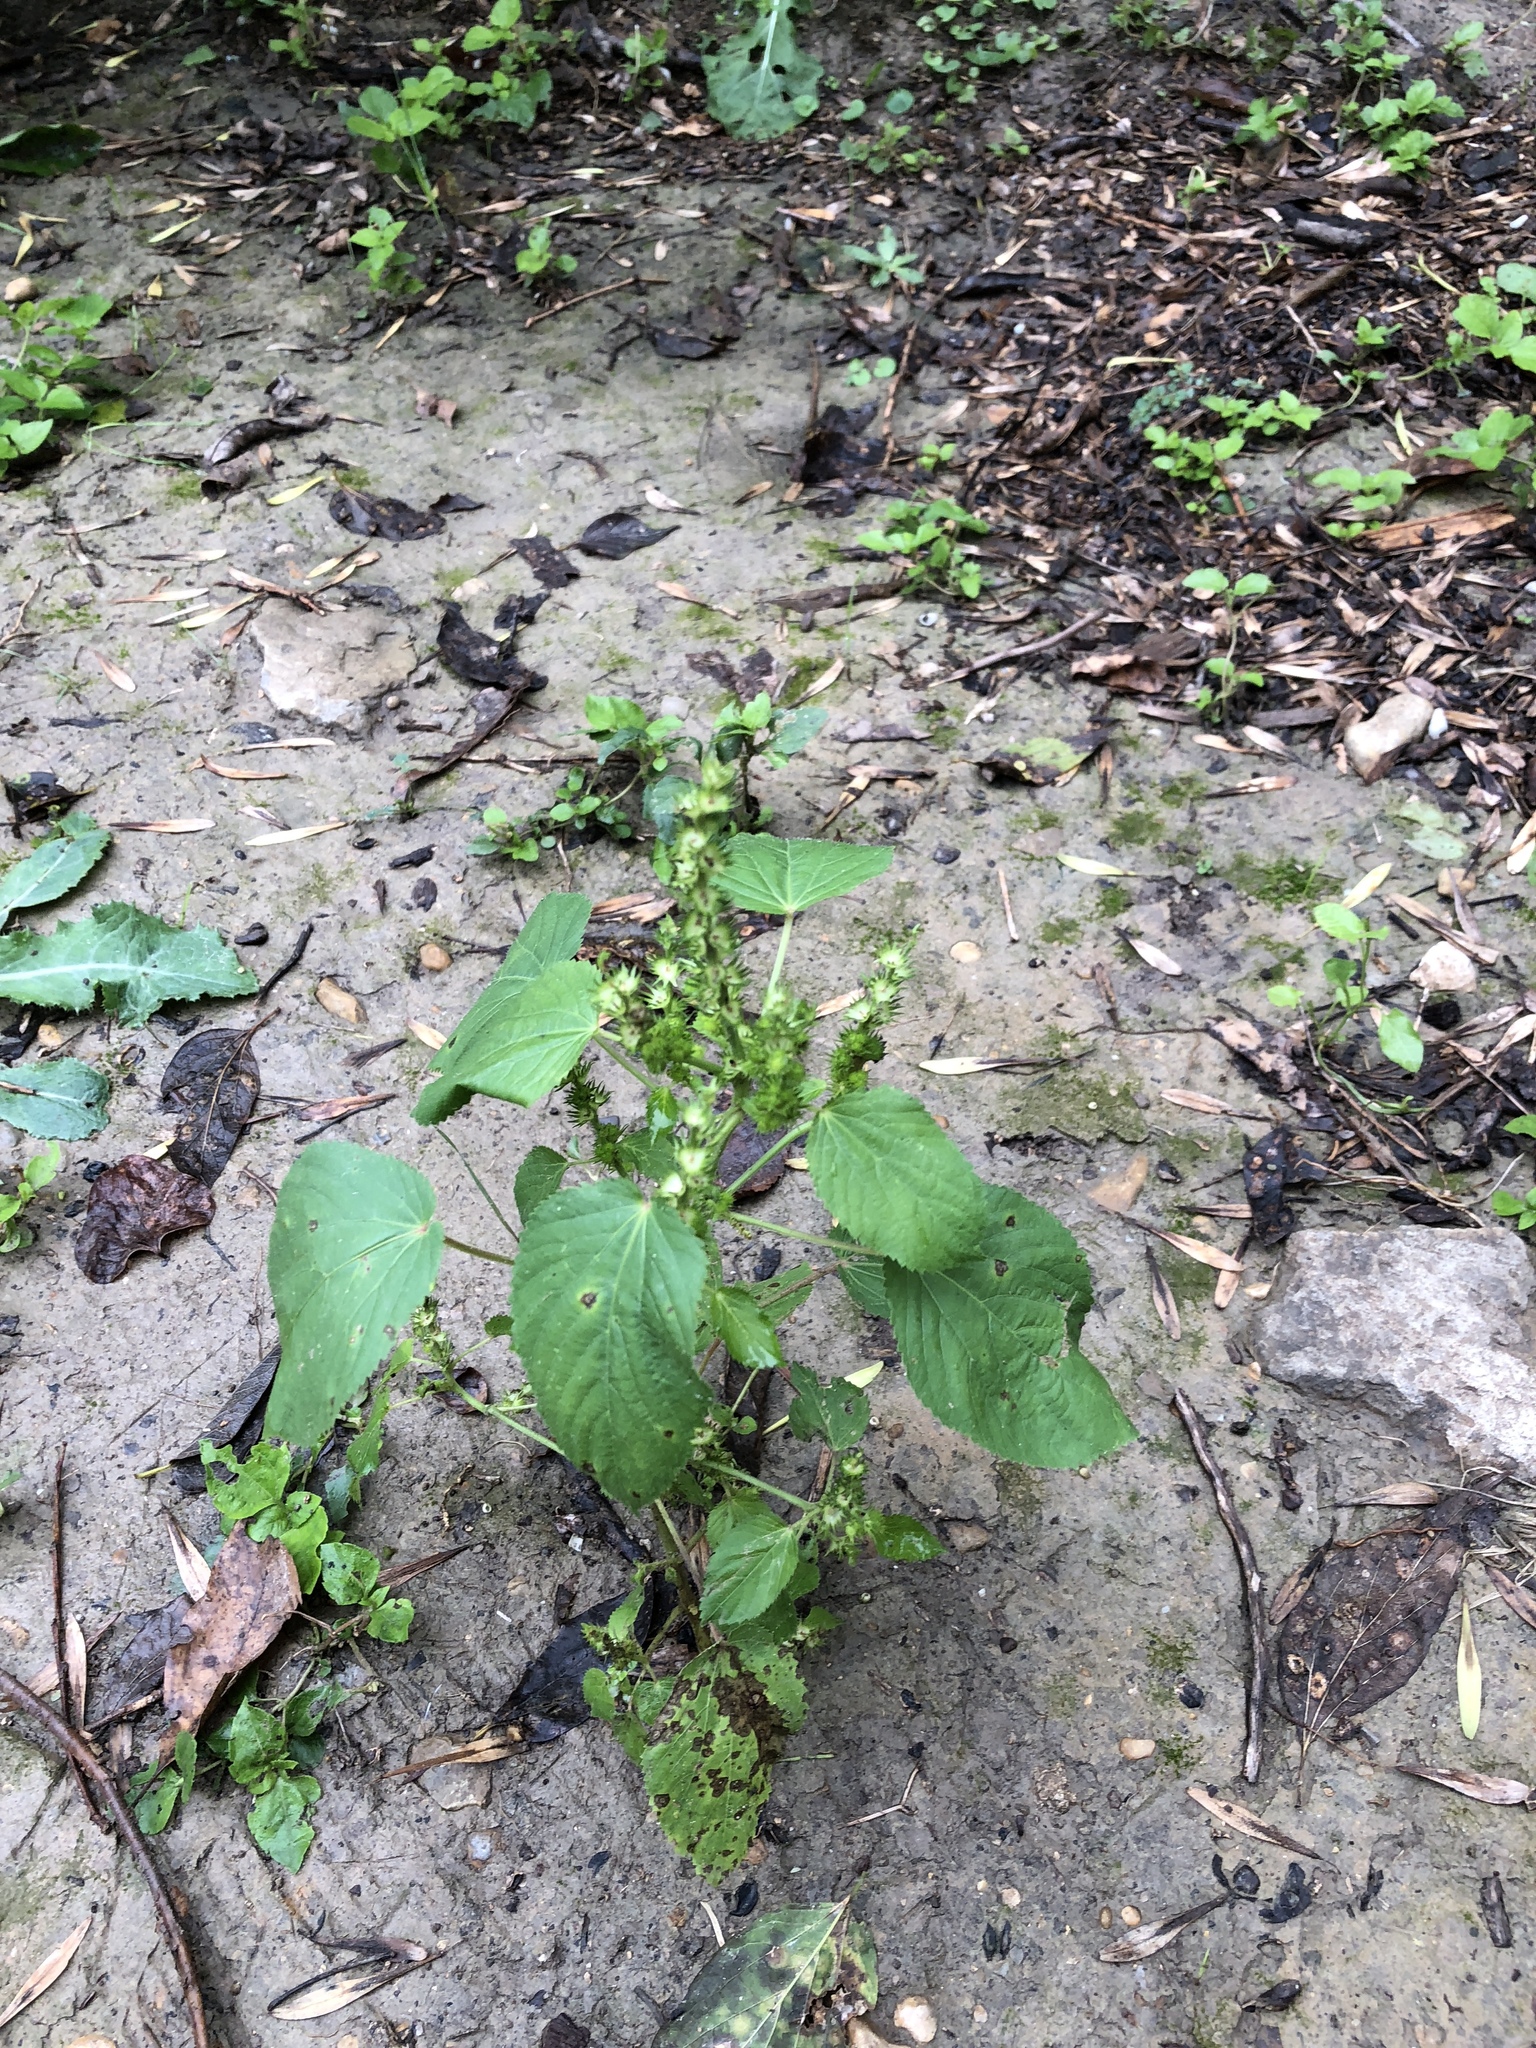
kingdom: Plantae
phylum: Tracheophyta
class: Magnoliopsida
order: Malpighiales
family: Euphorbiaceae
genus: Acalypha
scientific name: Acalypha ostryifolia
